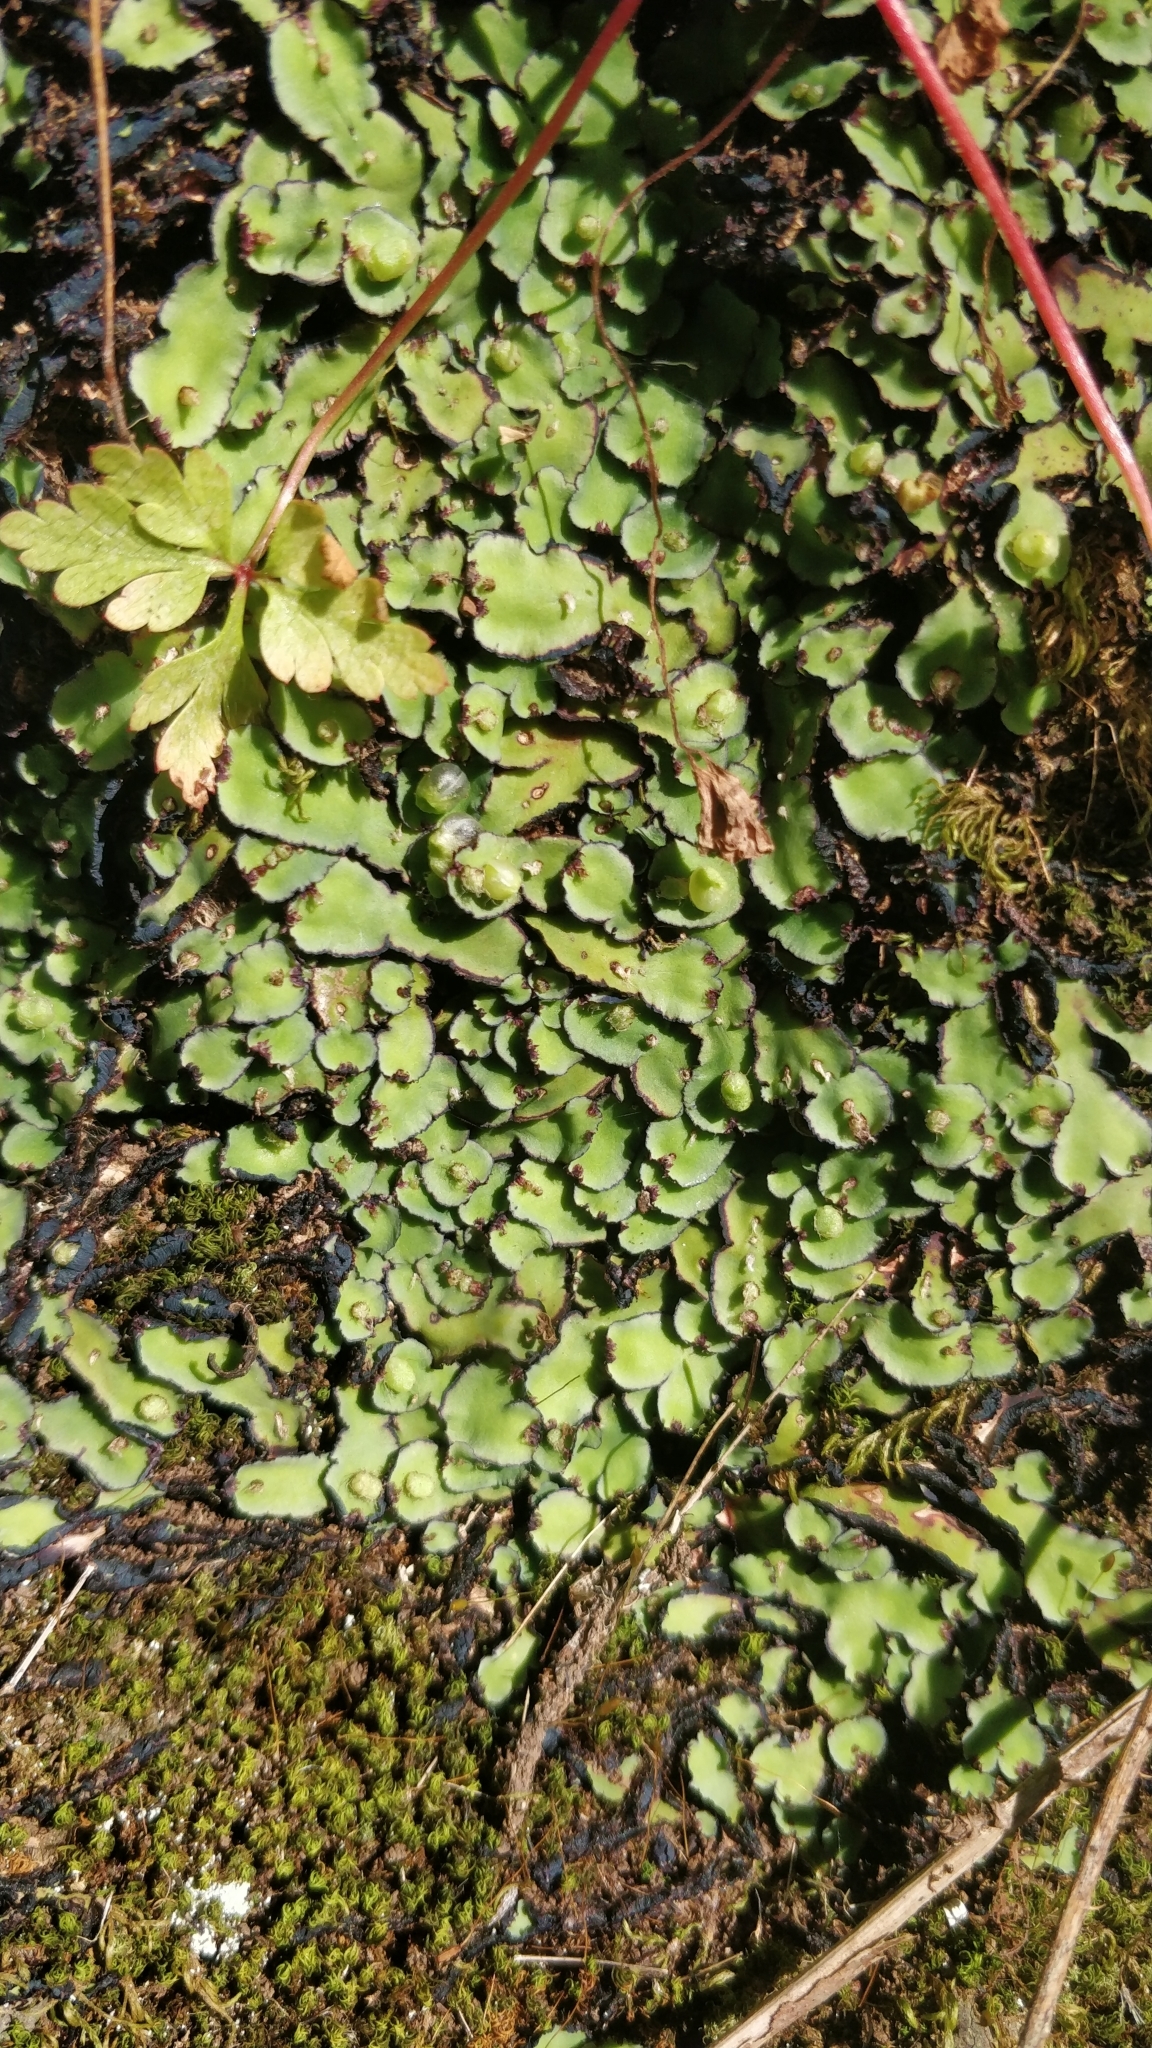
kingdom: Plantae
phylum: Marchantiophyta
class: Marchantiopsida
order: Marchantiales
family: Aytoniaceae
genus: Plagiochasma
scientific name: Plagiochasma rupestre
